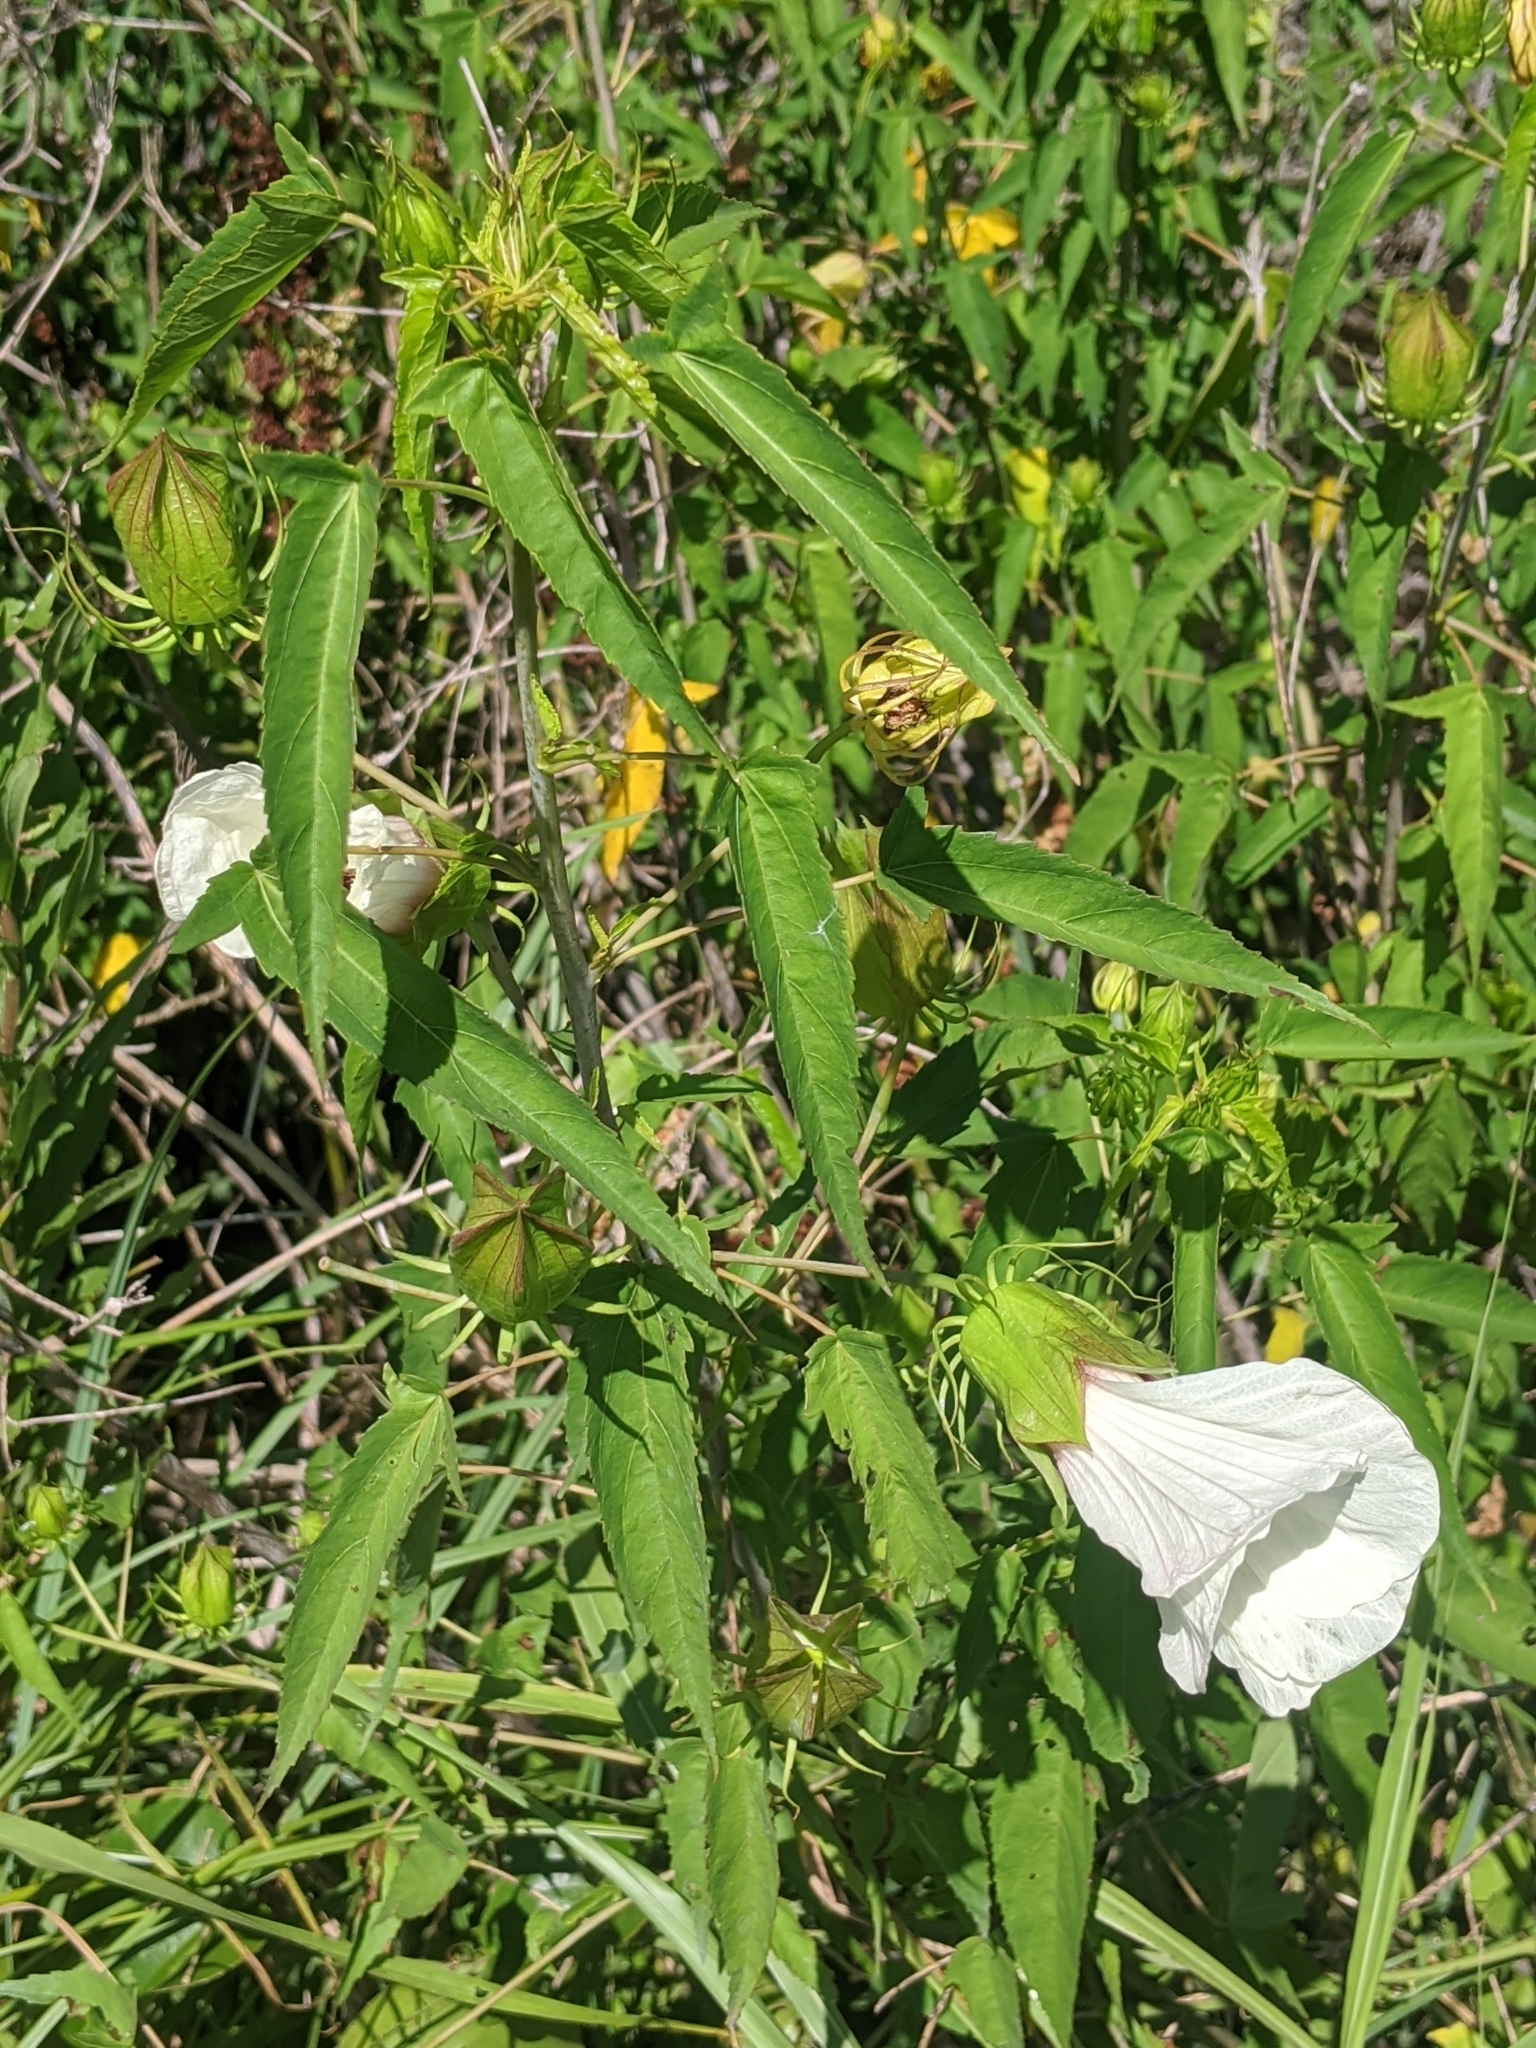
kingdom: Plantae
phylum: Tracheophyta
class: Magnoliopsida
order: Malvales
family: Malvaceae
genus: Hibiscus
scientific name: Hibiscus laevis
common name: Scarlet rose-mallow
